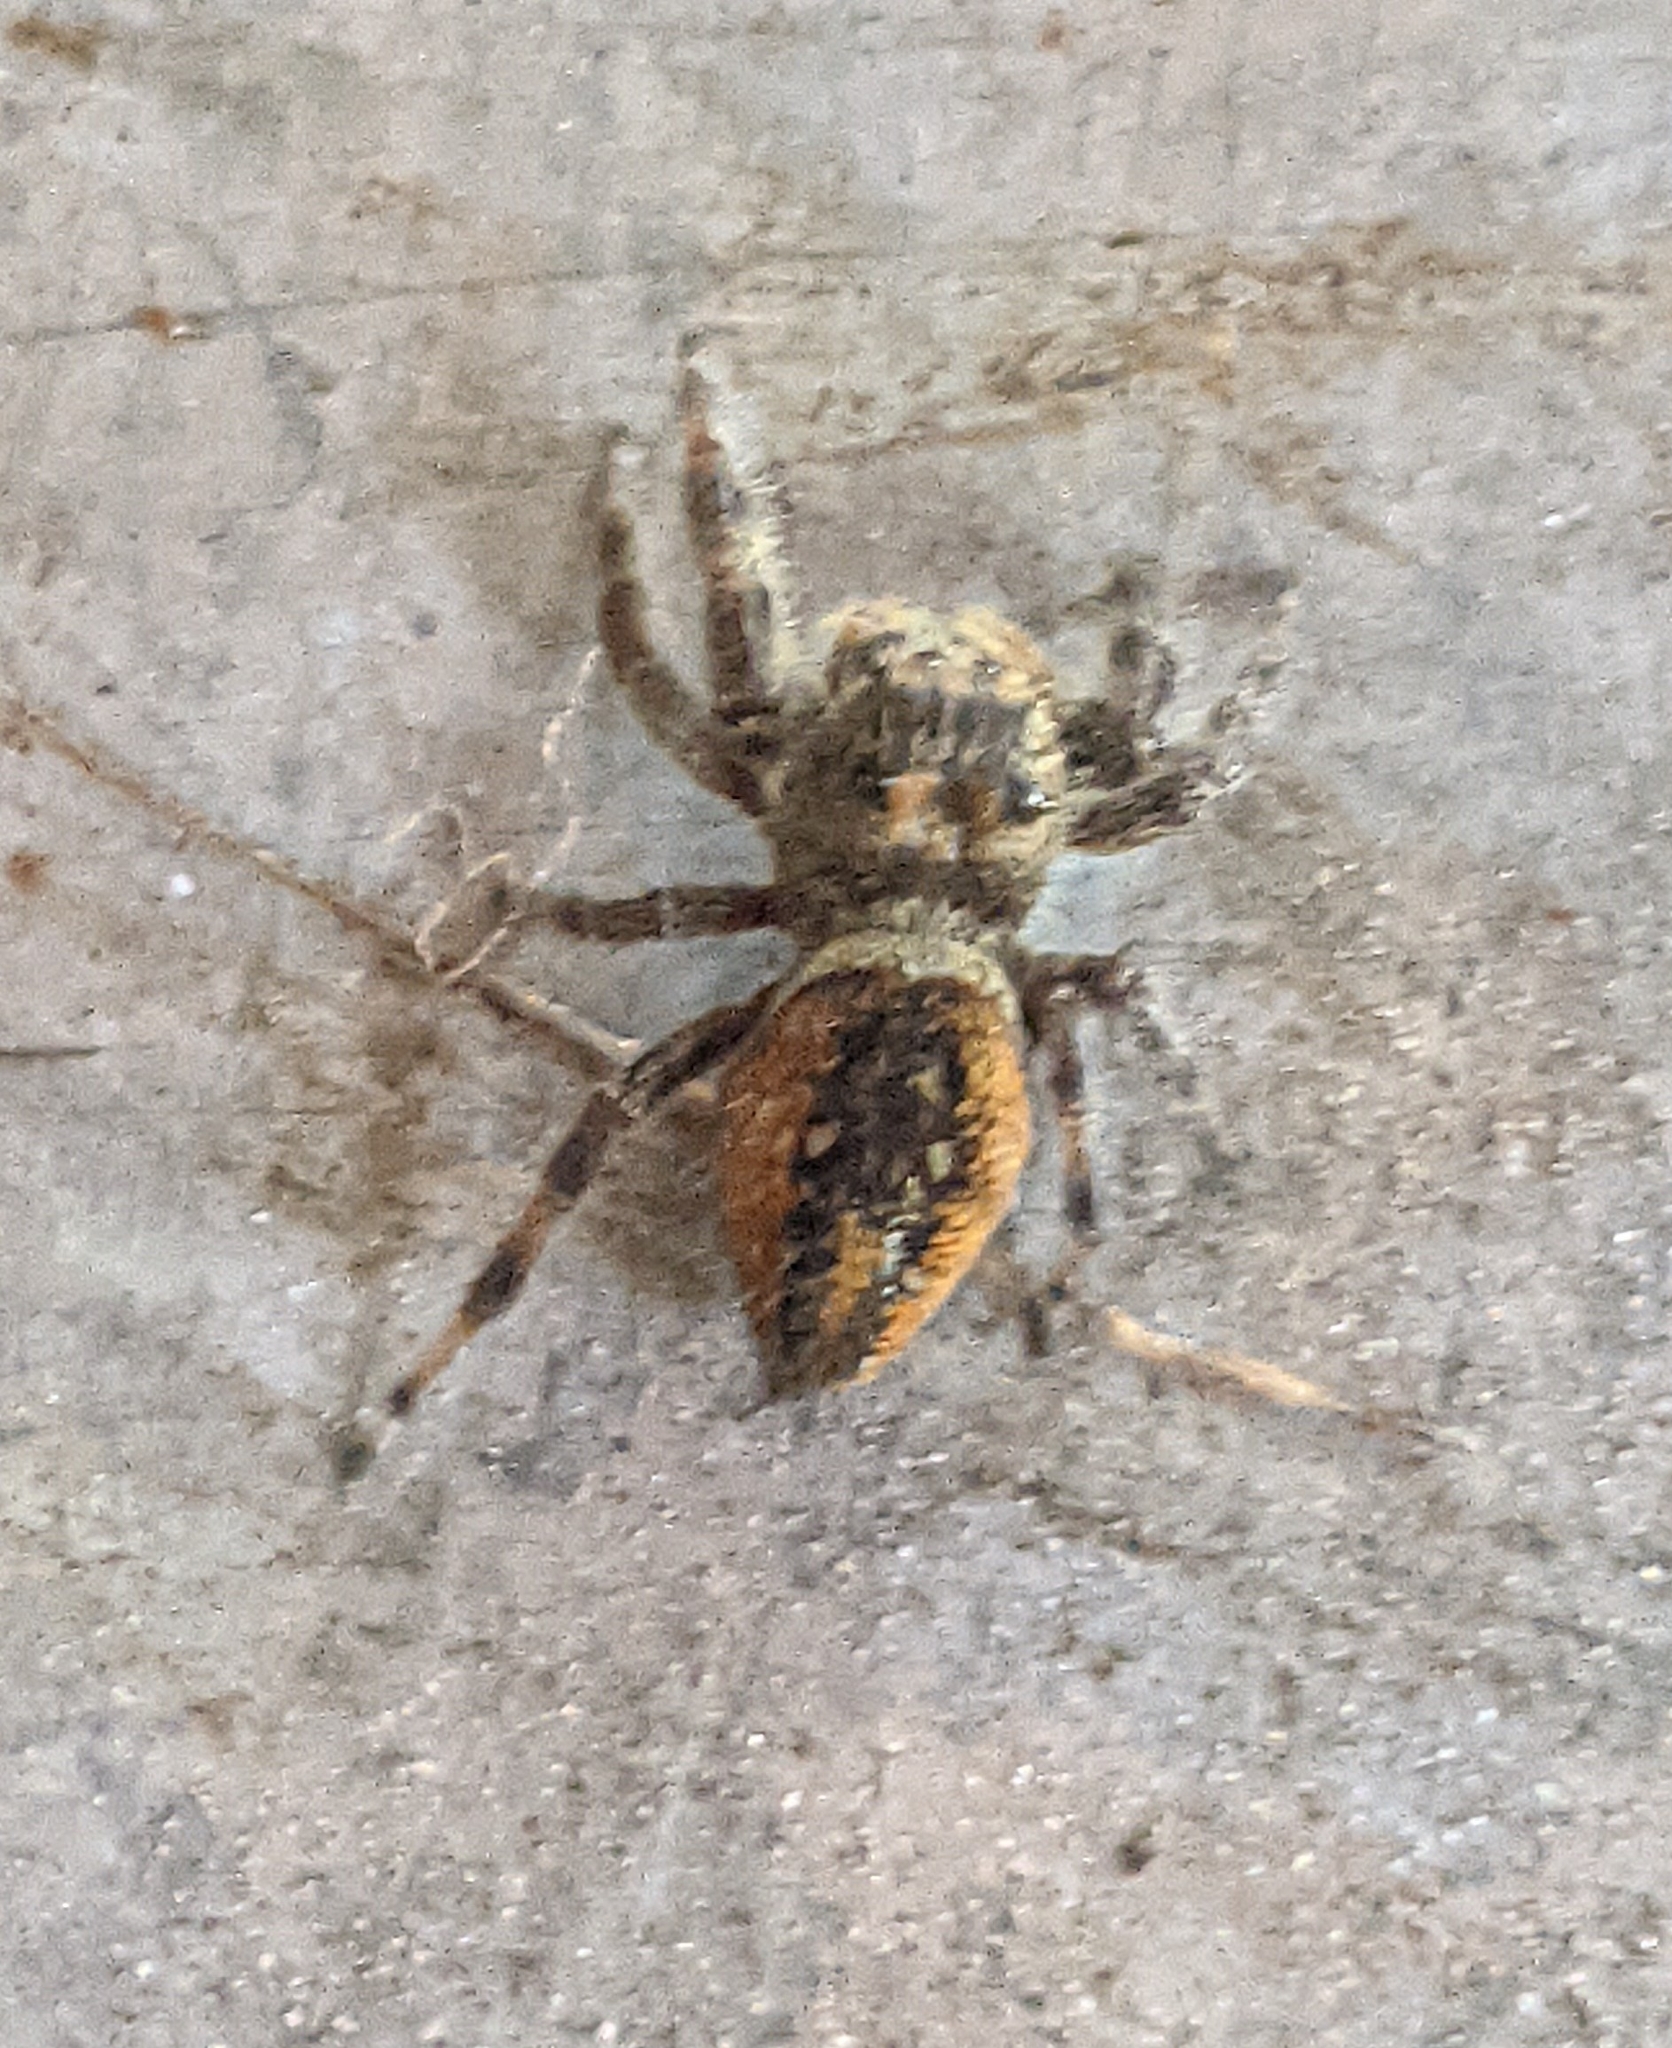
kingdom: Animalia
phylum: Arthropoda
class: Arachnida
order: Araneae
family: Salticidae
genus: Phidippus
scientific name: Phidippus clarus
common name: Brilliant jumping spider
